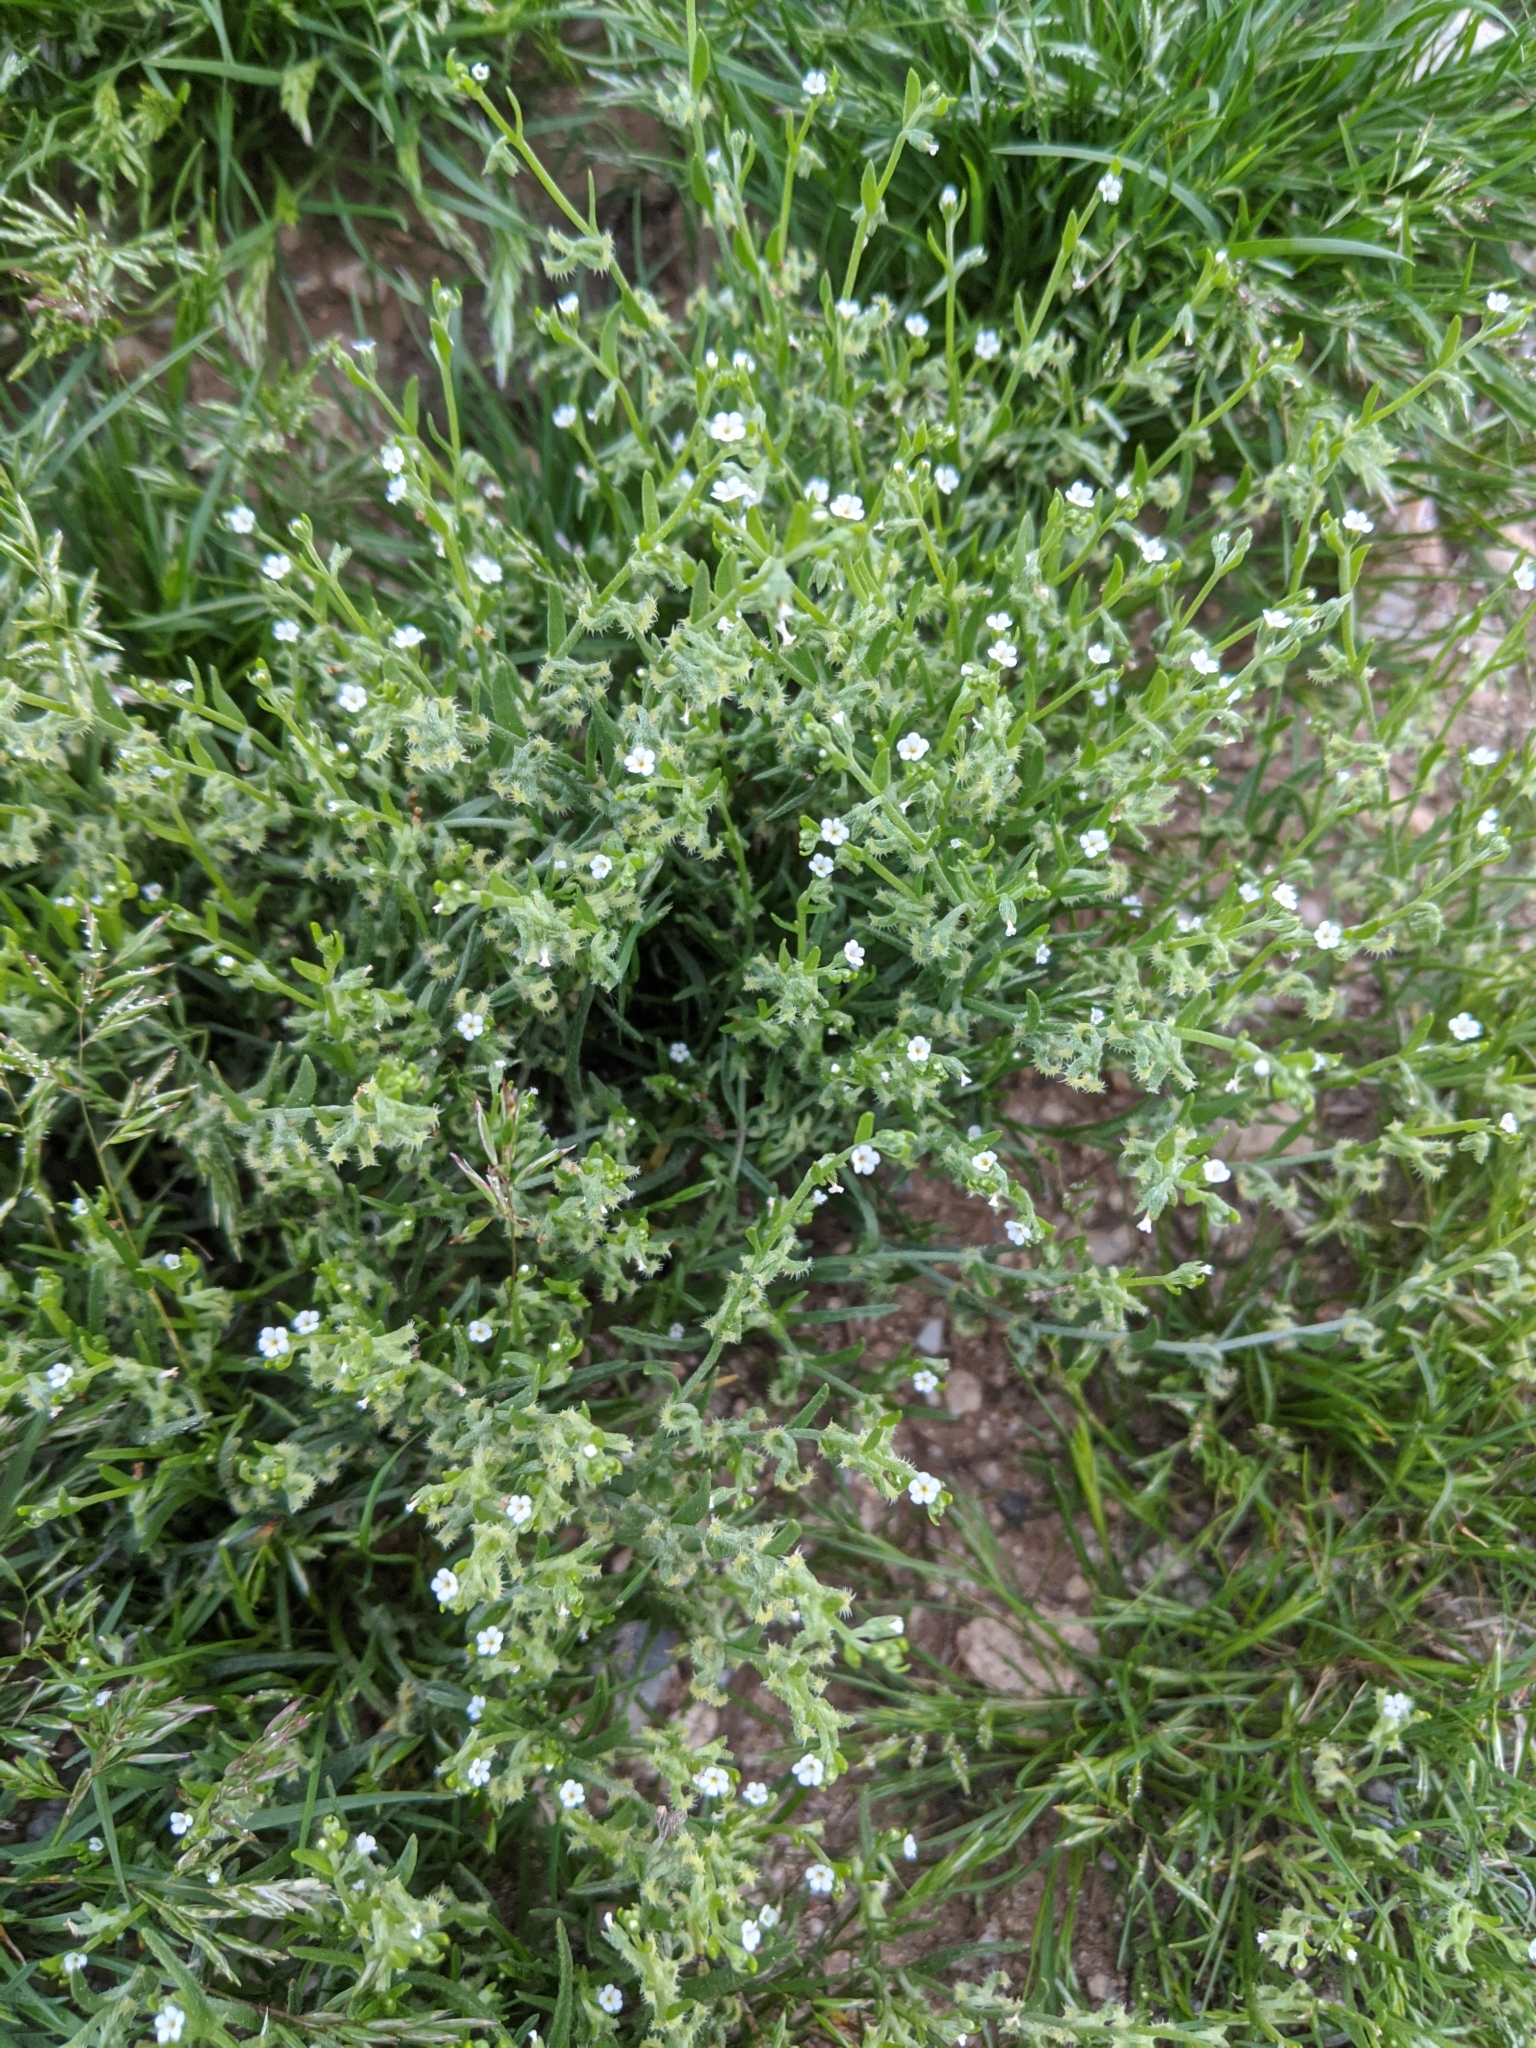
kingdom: Plantae
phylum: Tracheophyta
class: Magnoliopsida
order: Boraginales
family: Boraginaceae
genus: Pectocarya
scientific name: Pectocarya recurvata
